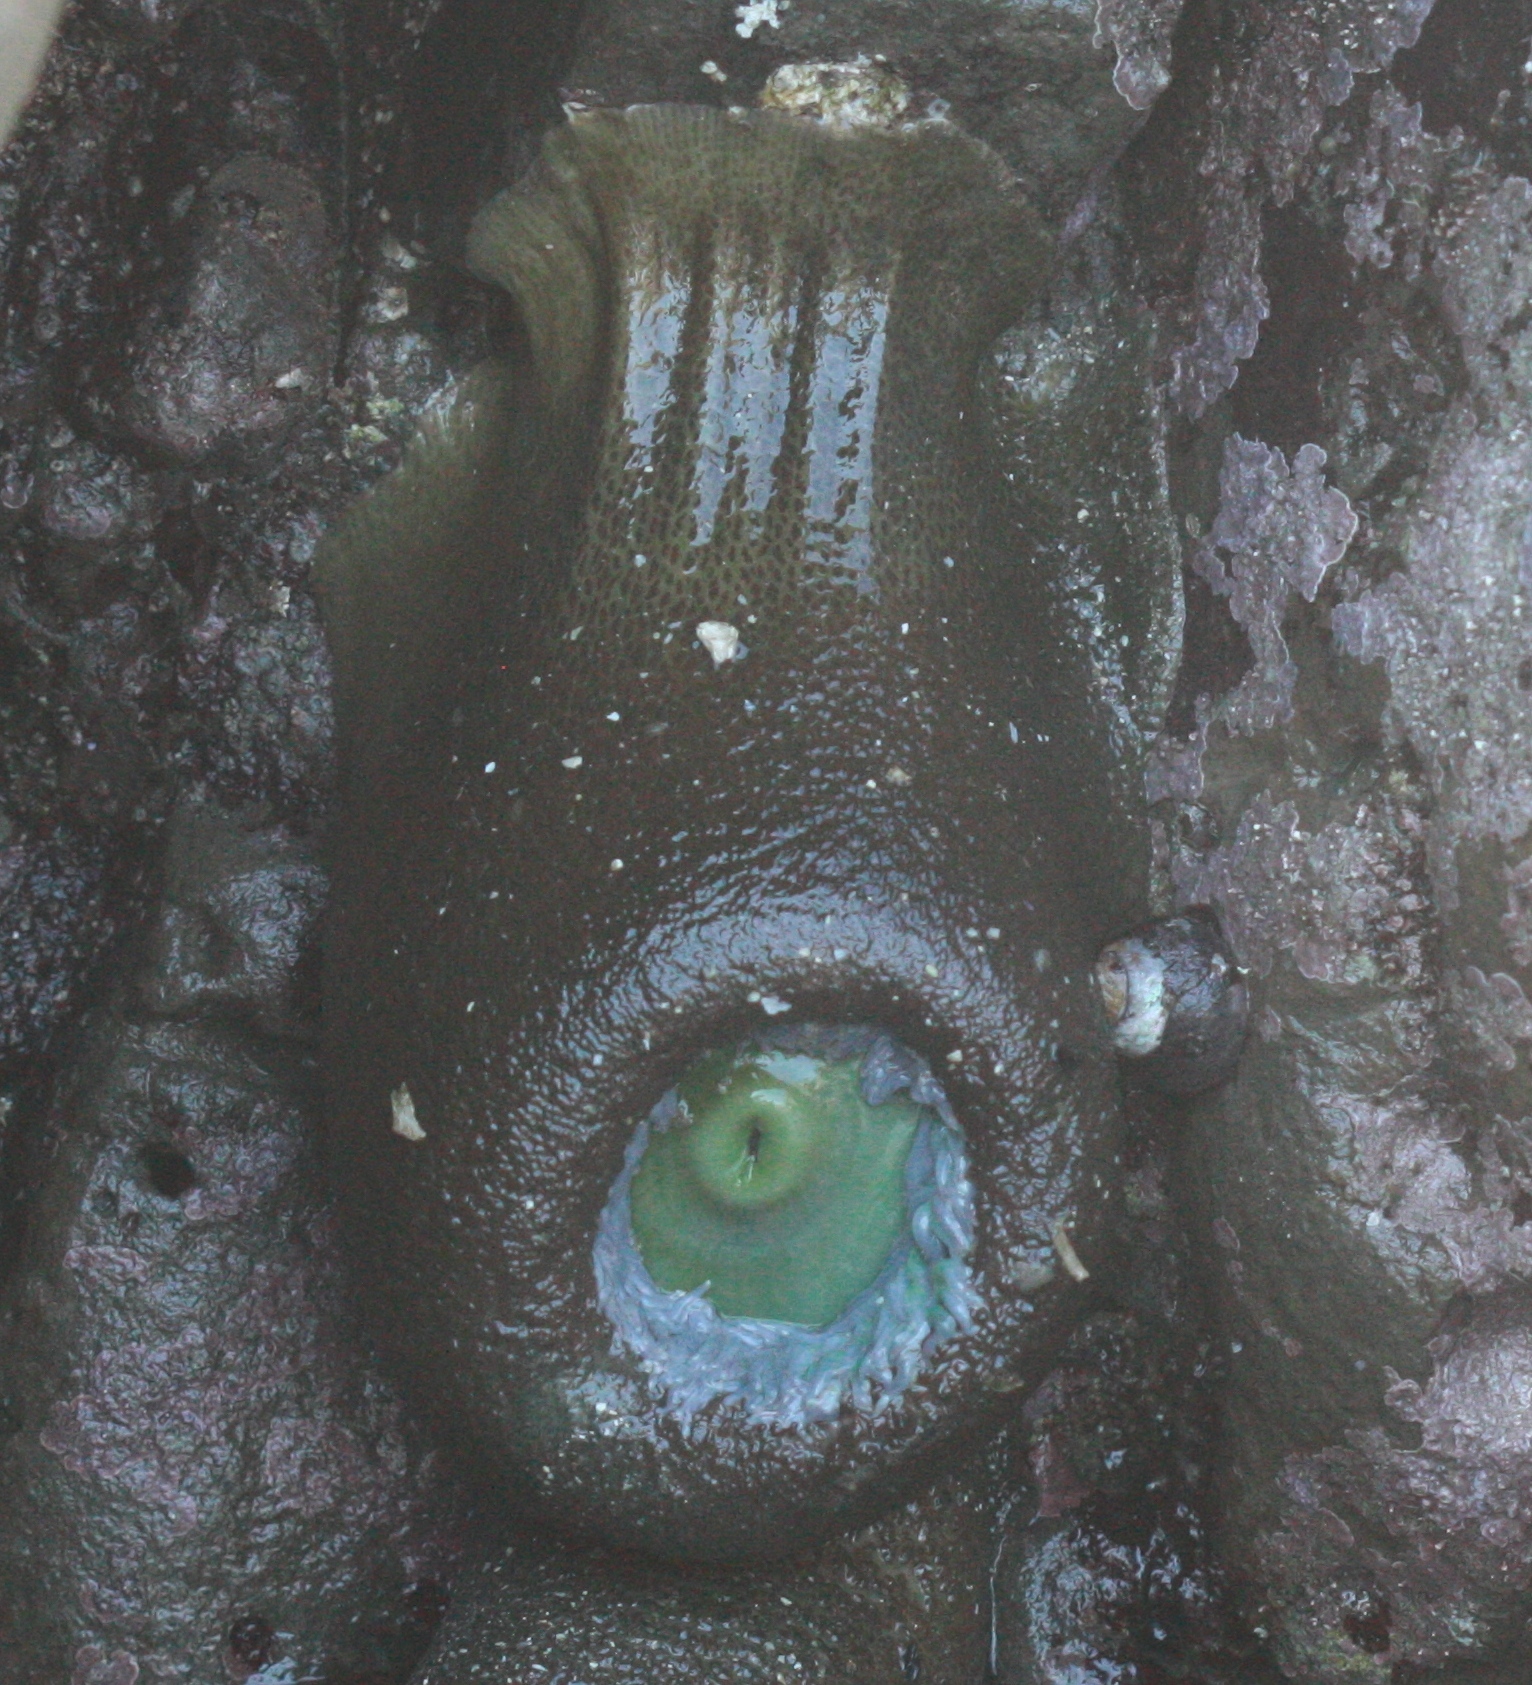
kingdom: Animalia
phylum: Cnidaria
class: Anthozoa
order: Actiniaria
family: Actiniidae
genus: Anthopleura
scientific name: Anthopleura xanthogrammica
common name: Giant green anemone
